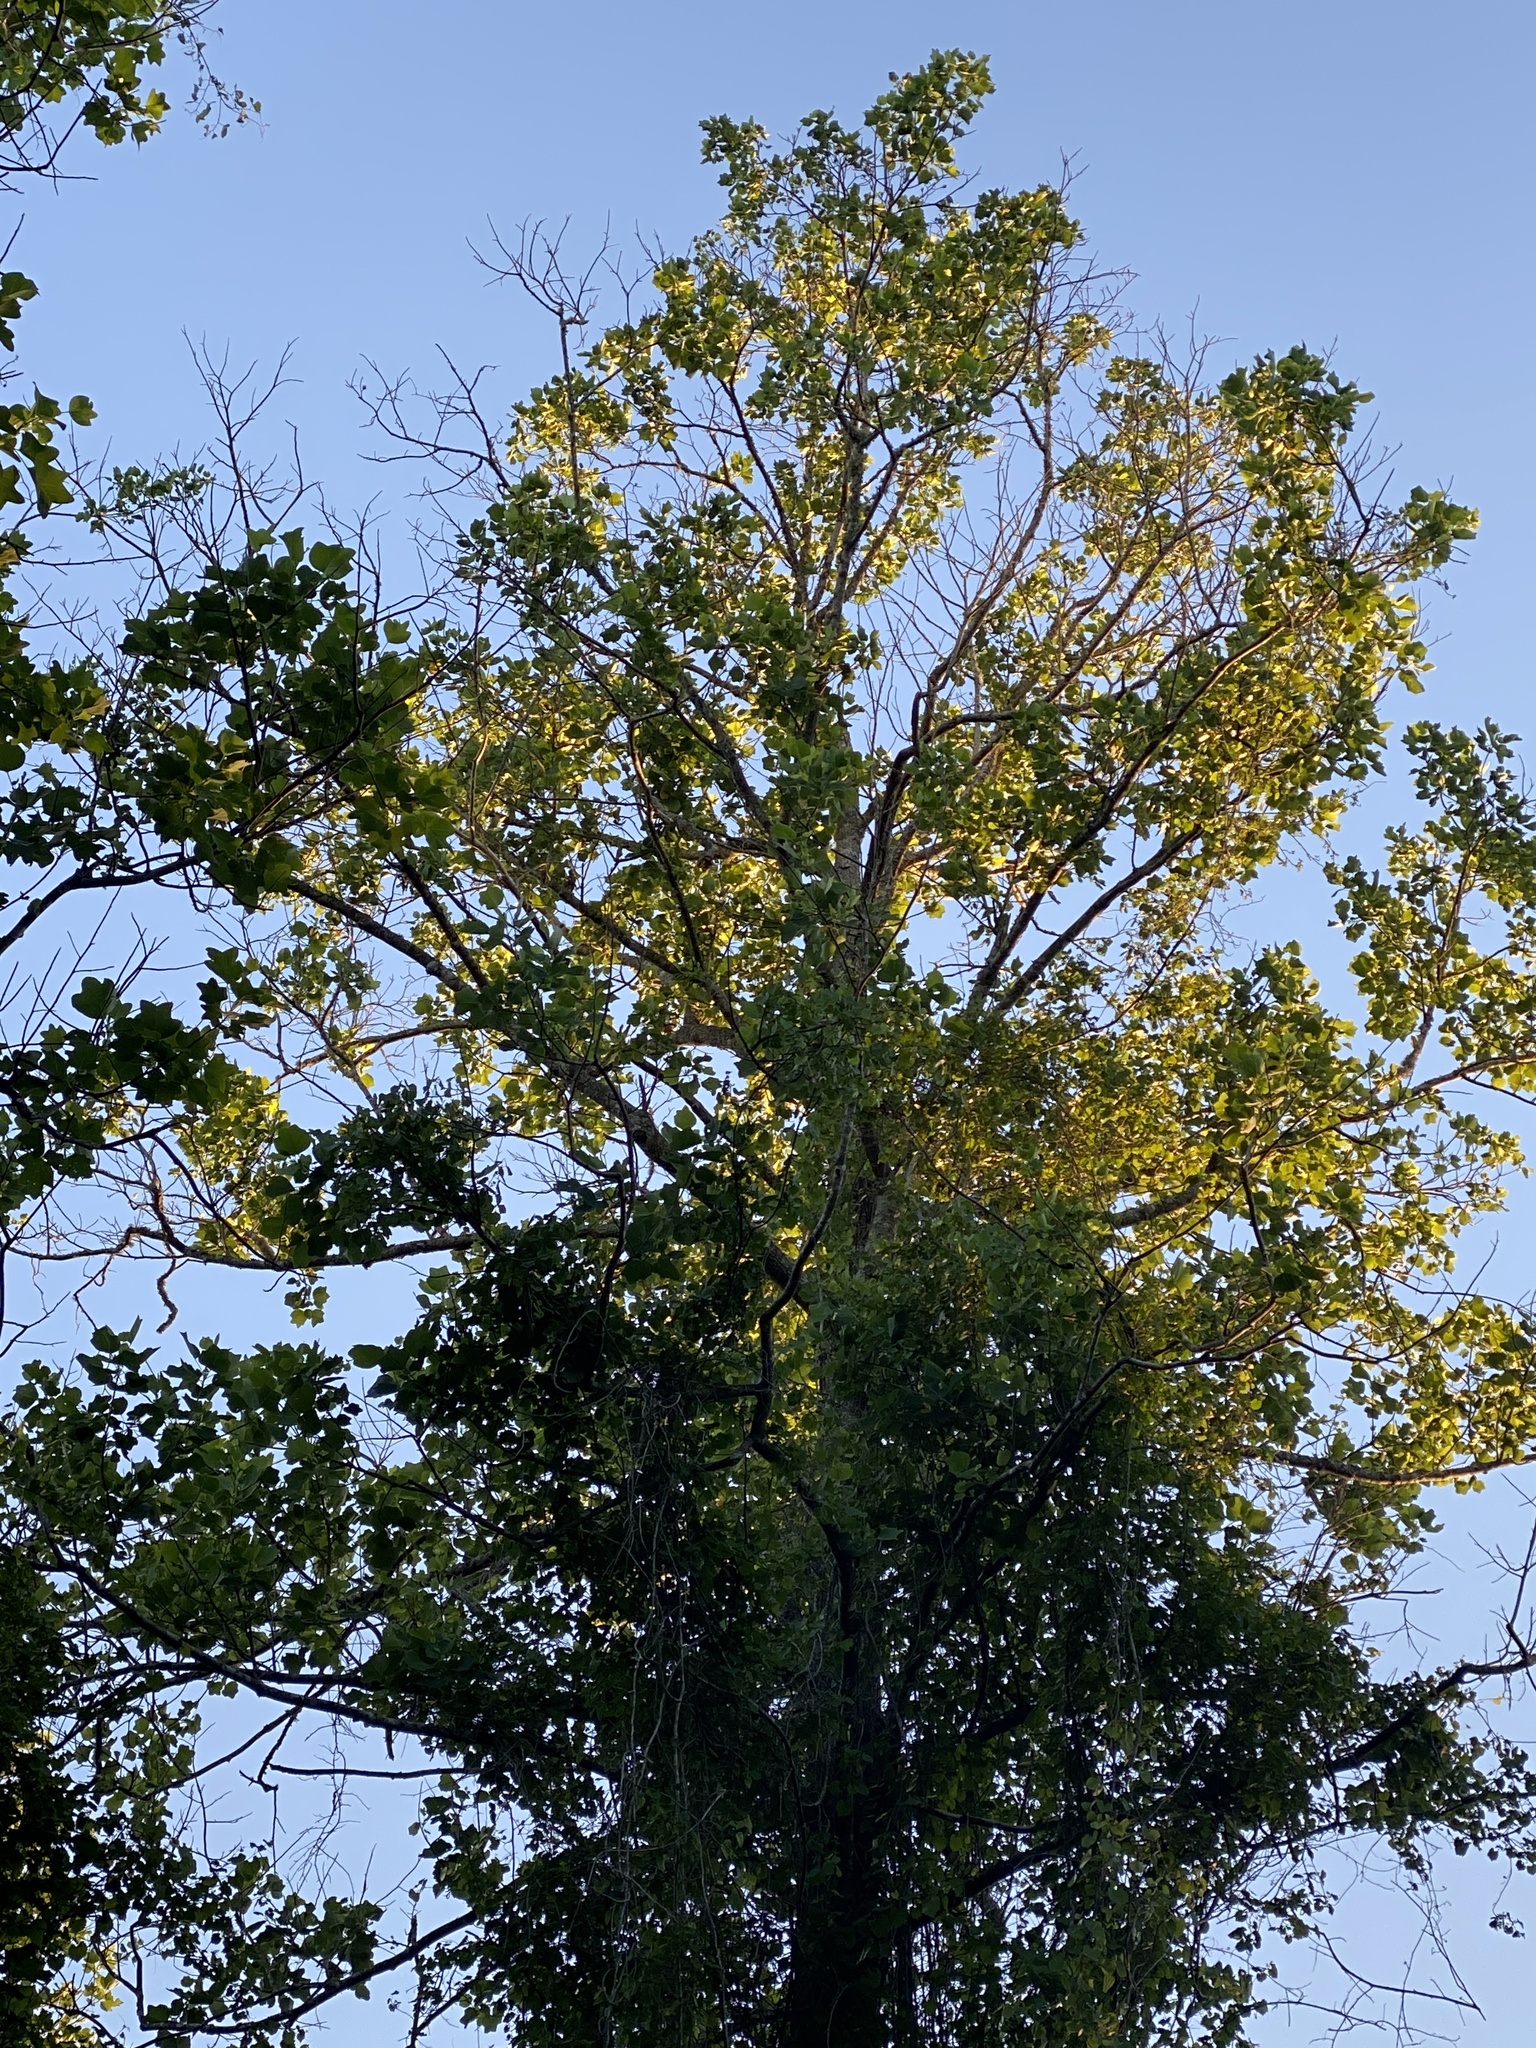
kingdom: Plantae
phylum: Tracheophyta
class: Magnoliopsida
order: Magnoliales
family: Magnoliaceae
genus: Liriodendron
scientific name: Liriodendron tulipifera
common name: Tulip tree
